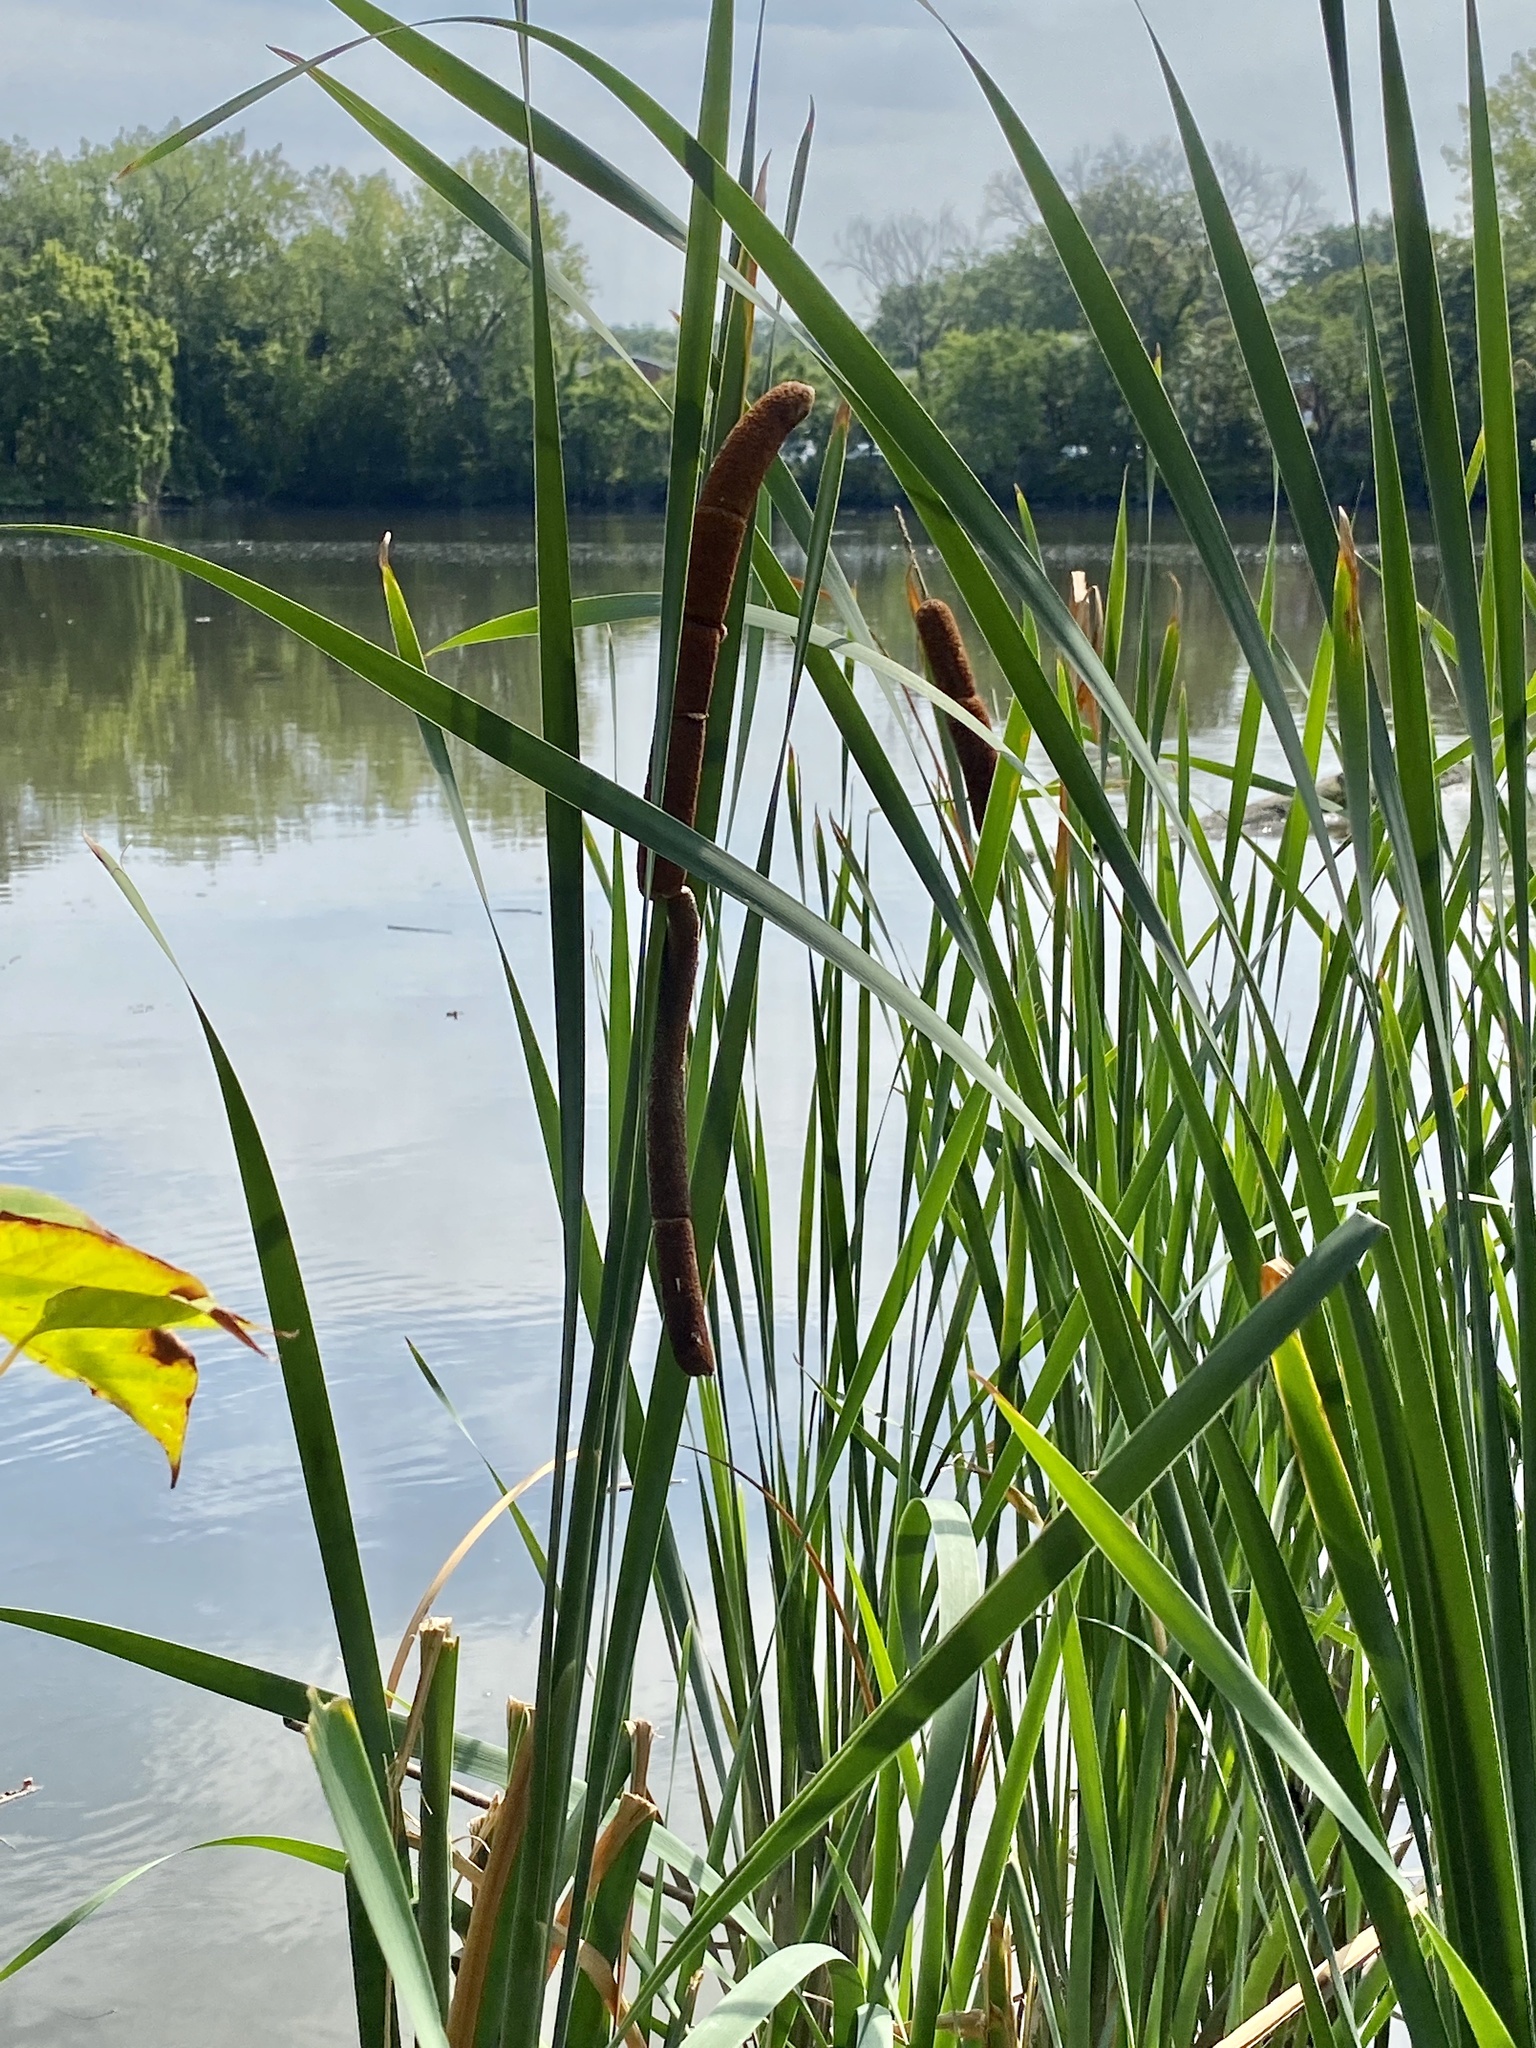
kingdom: Plantae
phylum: Tracheophyta
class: Liliopsida
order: Poales
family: Typhaceae
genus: Typha
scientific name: Typha latifolia
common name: Broadleaf cattail
